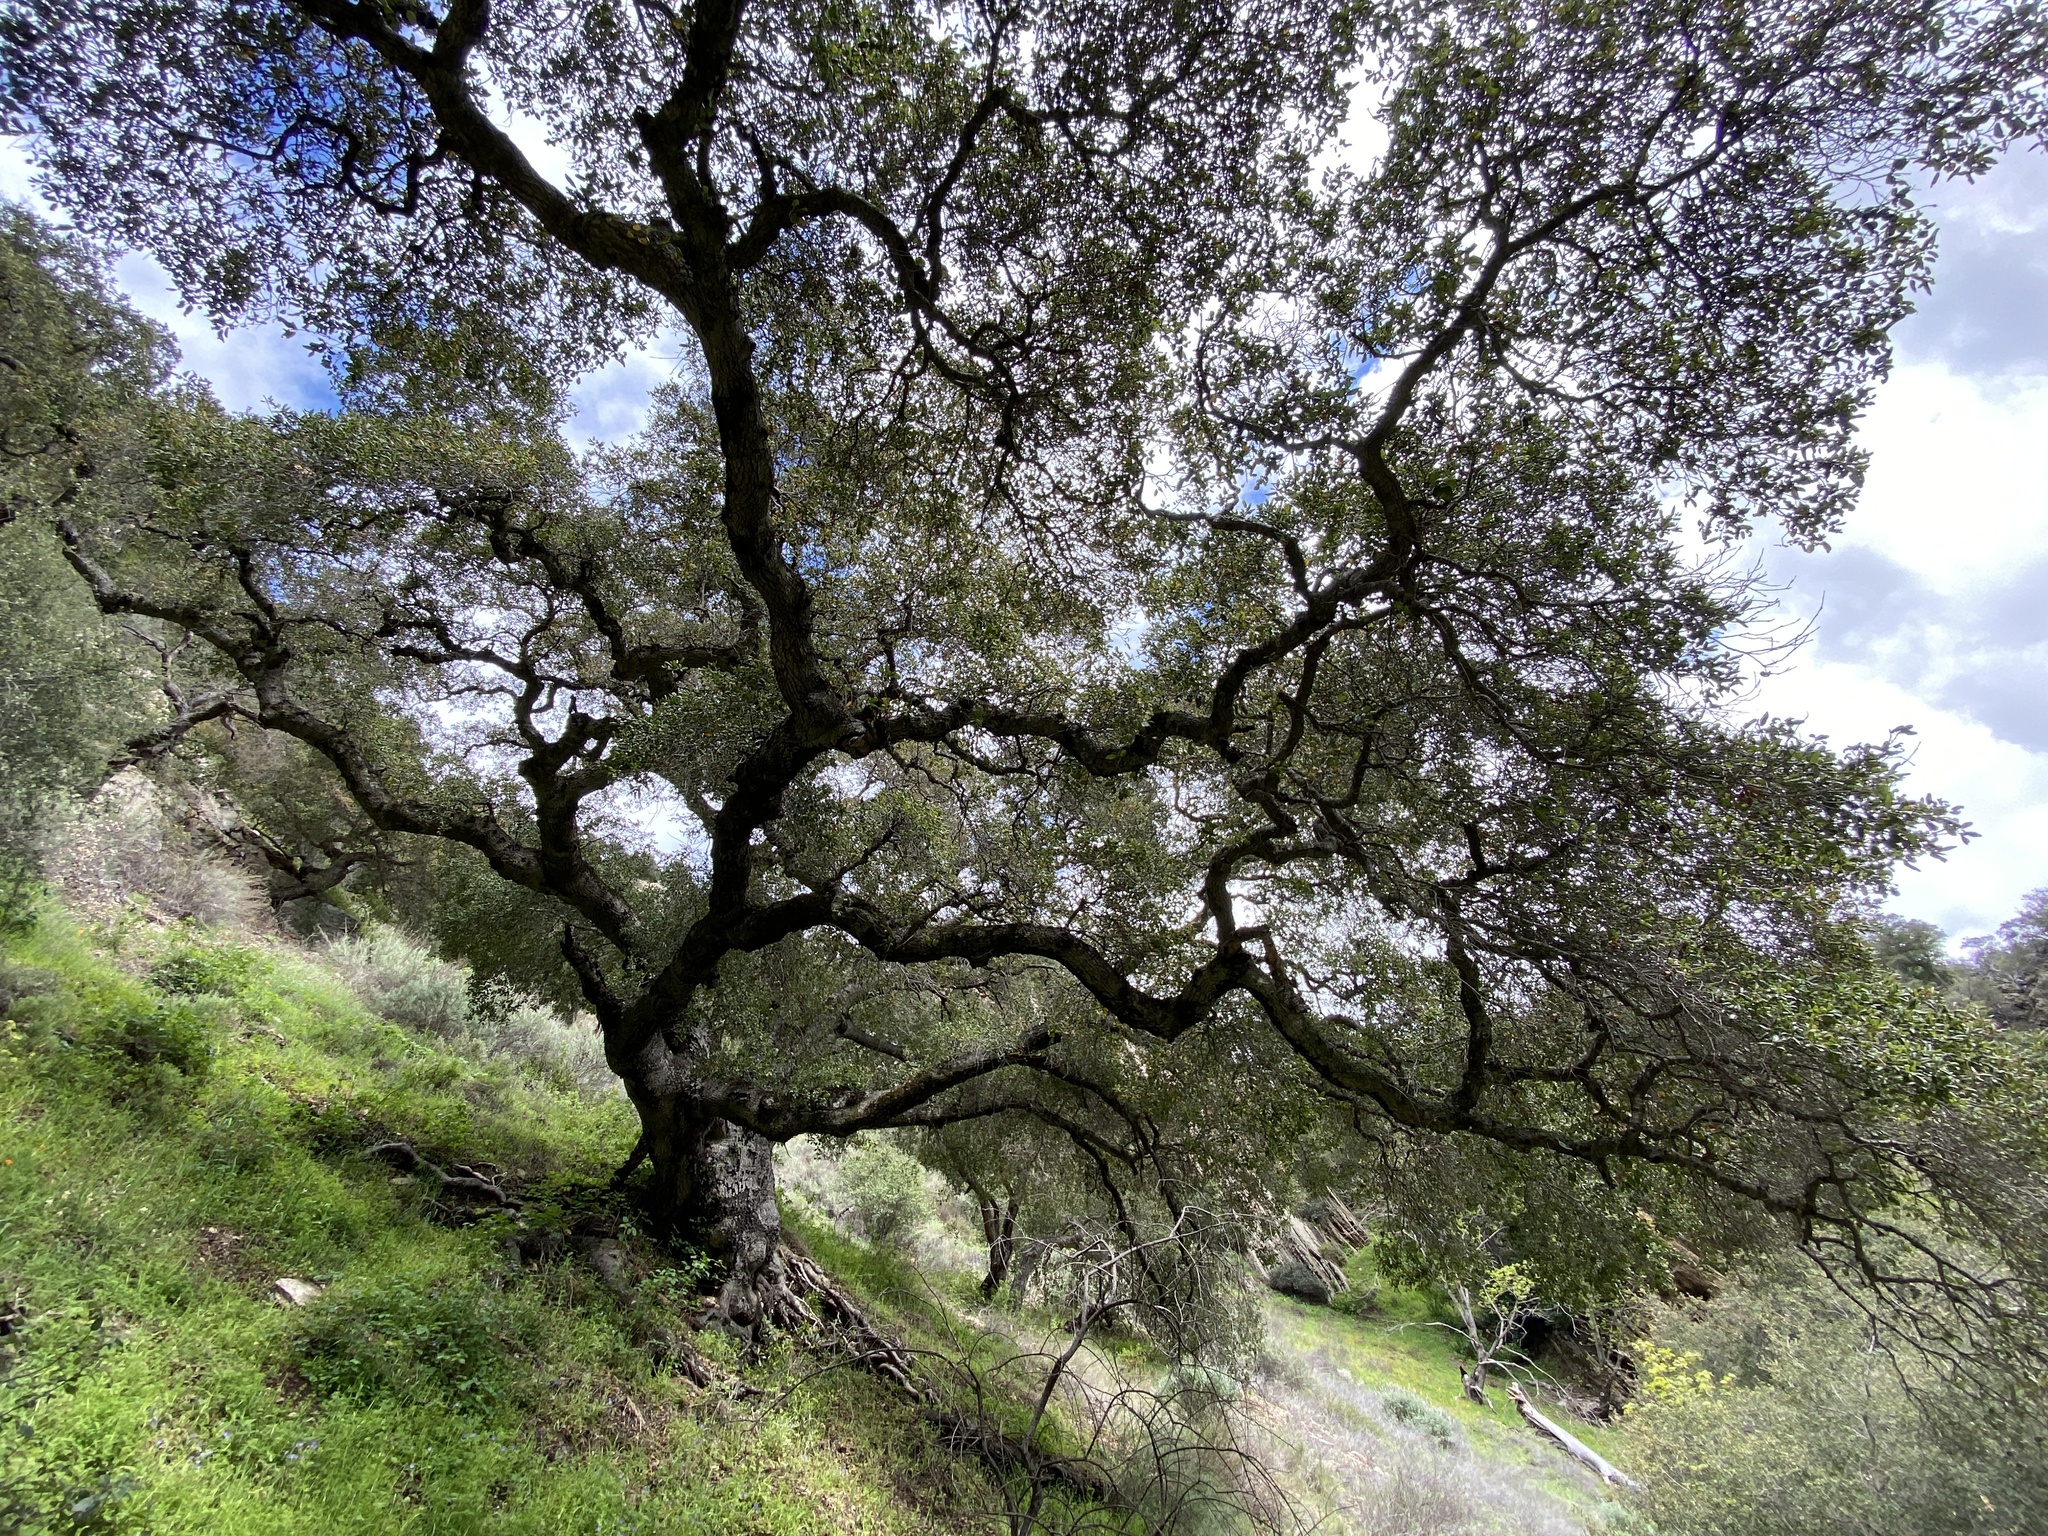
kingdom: Plantae
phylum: Tracheophyta
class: Magnoliopsida
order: Fagales
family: Fagaceae
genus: Quercus
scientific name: Quercus agrifolia
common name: California live oak
